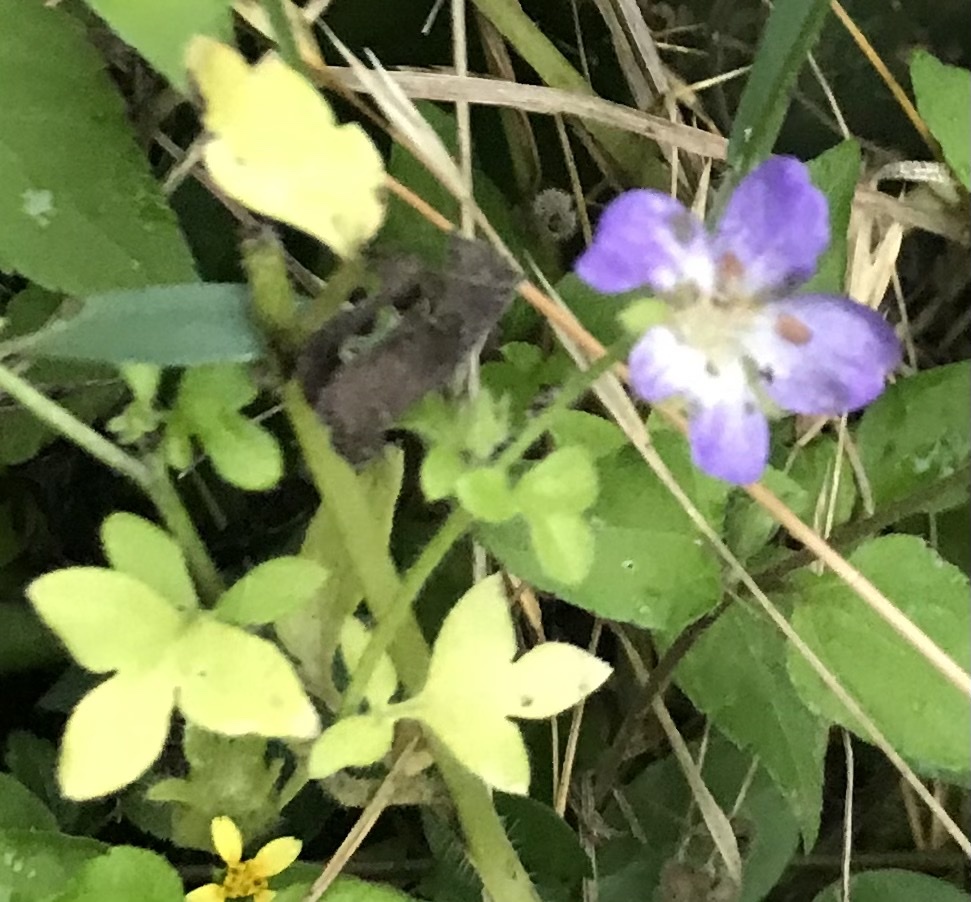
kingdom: Plantae
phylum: Tracheophyta
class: Magnoliopsida
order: Boraginales
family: Hydrophyllaceae
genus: Nemophila
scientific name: Nemophila phacelioides
